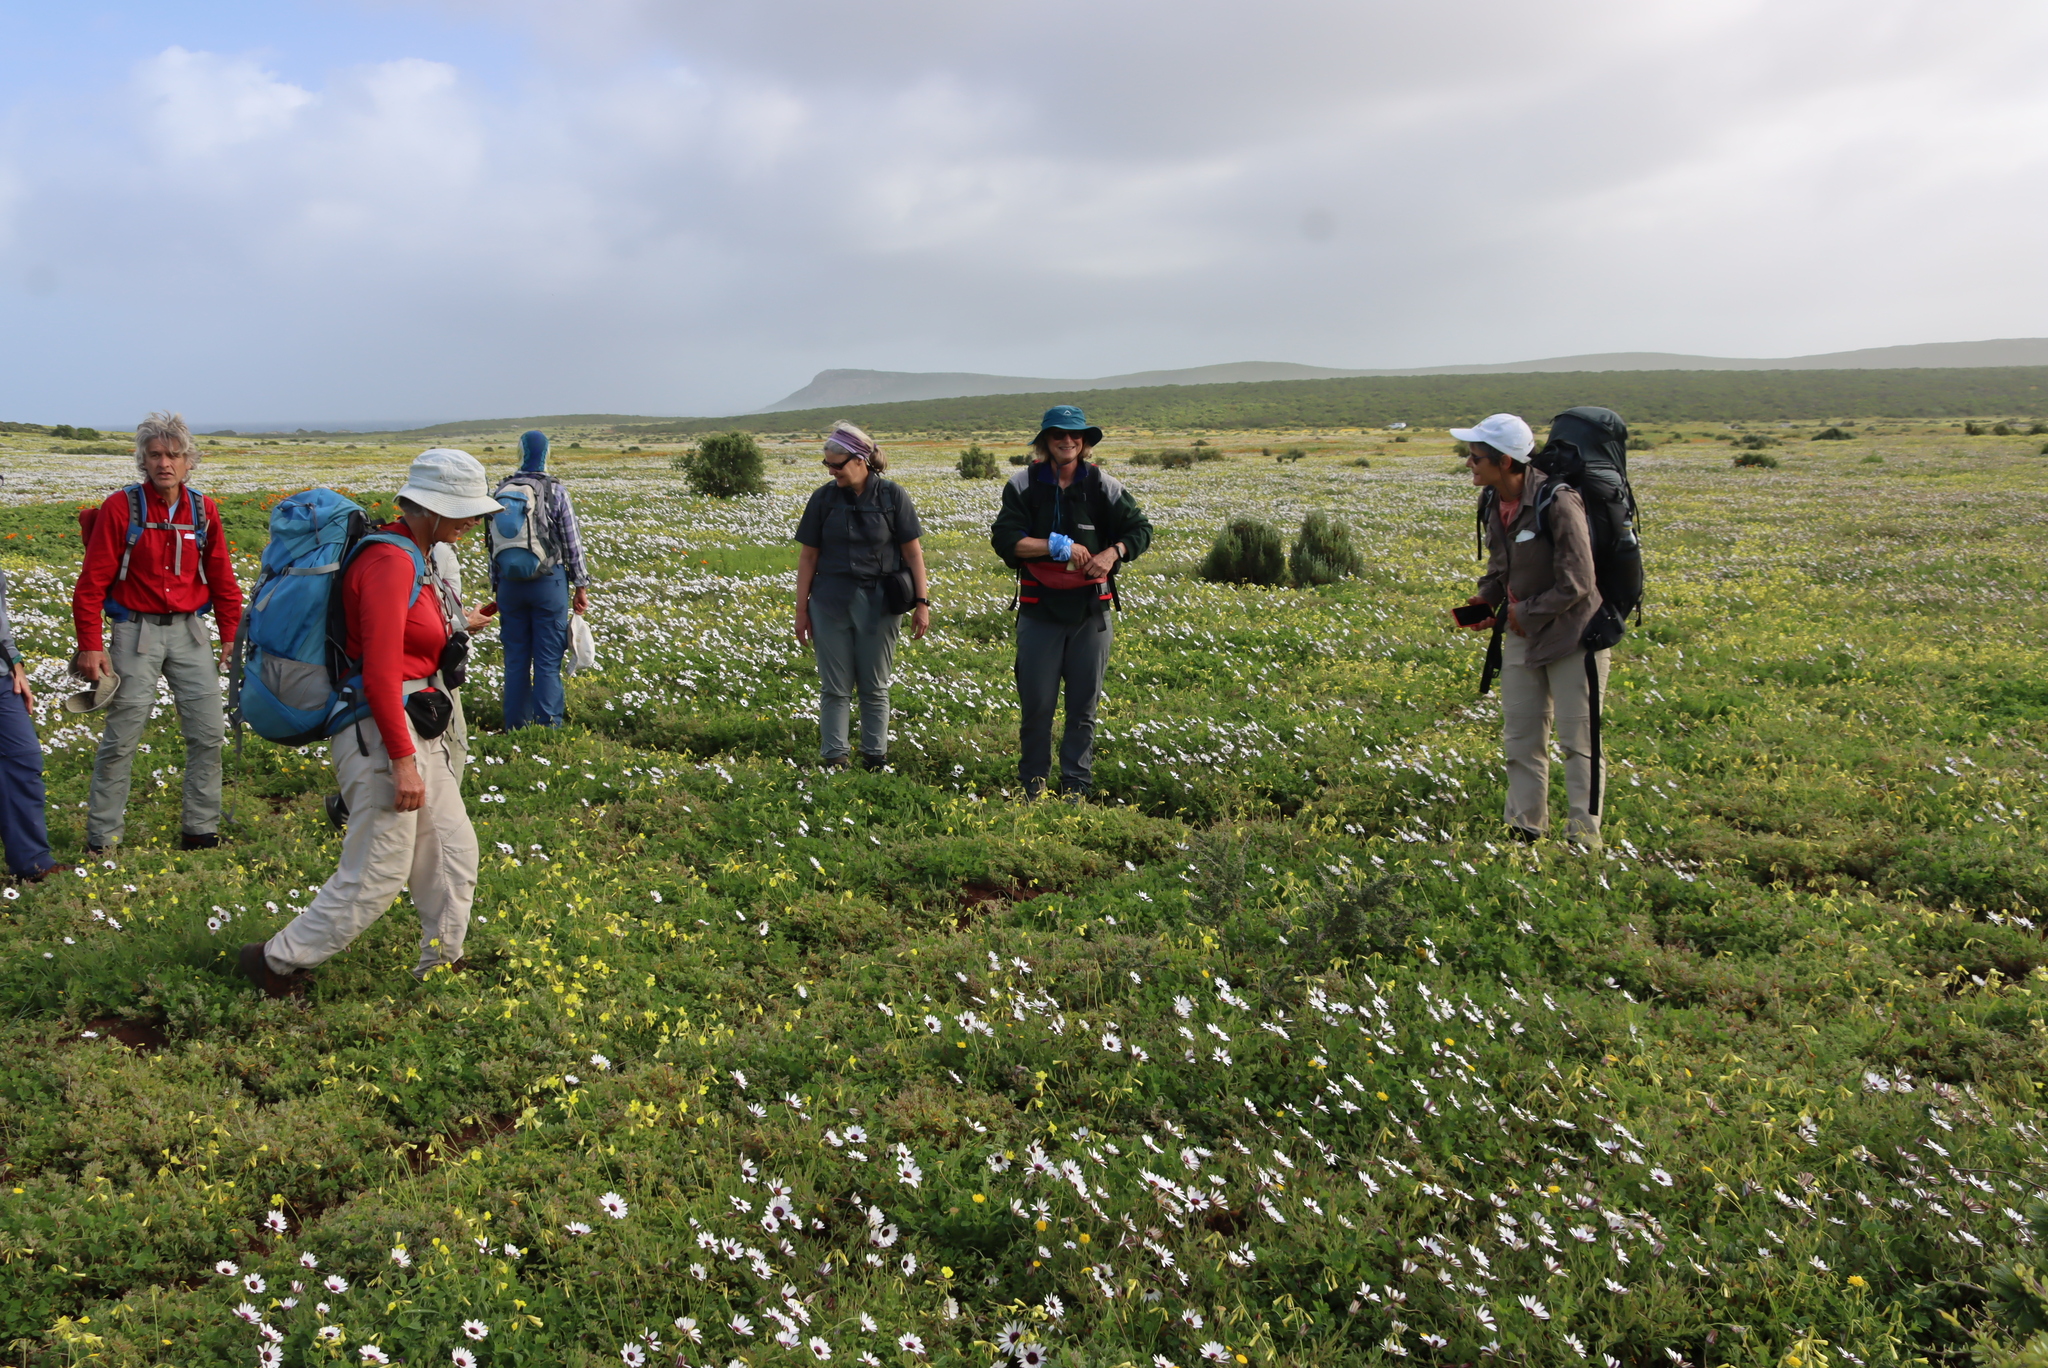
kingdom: Plantae
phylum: Tracheophyta
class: Magnoliopsida
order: Oxalidales
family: Oxalidaceae
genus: Oxalis
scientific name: Oxalis pes-caprae
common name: Bermuda-buttercup
